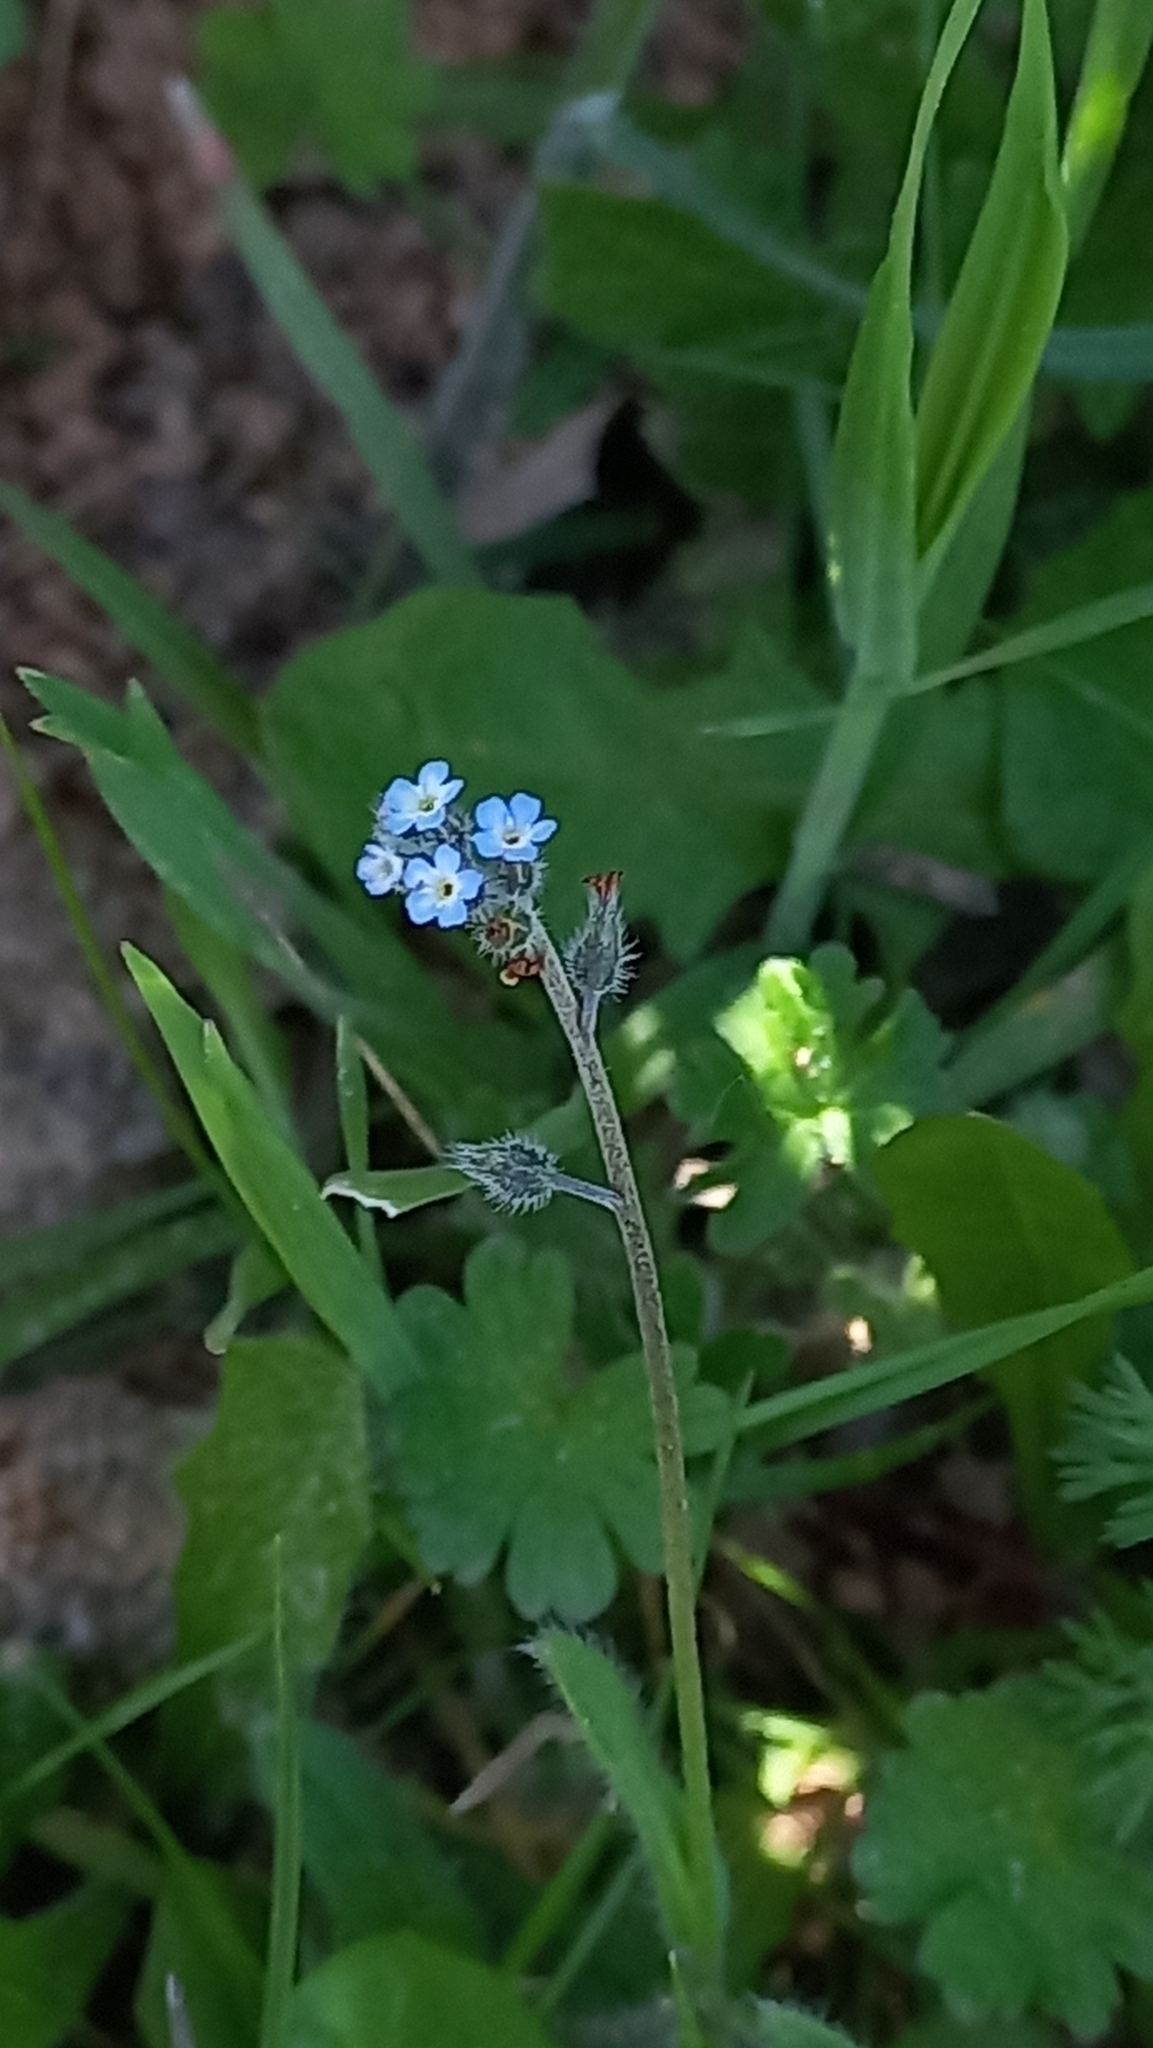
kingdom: Plantae
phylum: Tracheophyta
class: Magnoliopsida
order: Boraginales
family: Boraginaceae
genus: Myosotis
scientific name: Myosotis ramosissima
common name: Early forget-me-not
